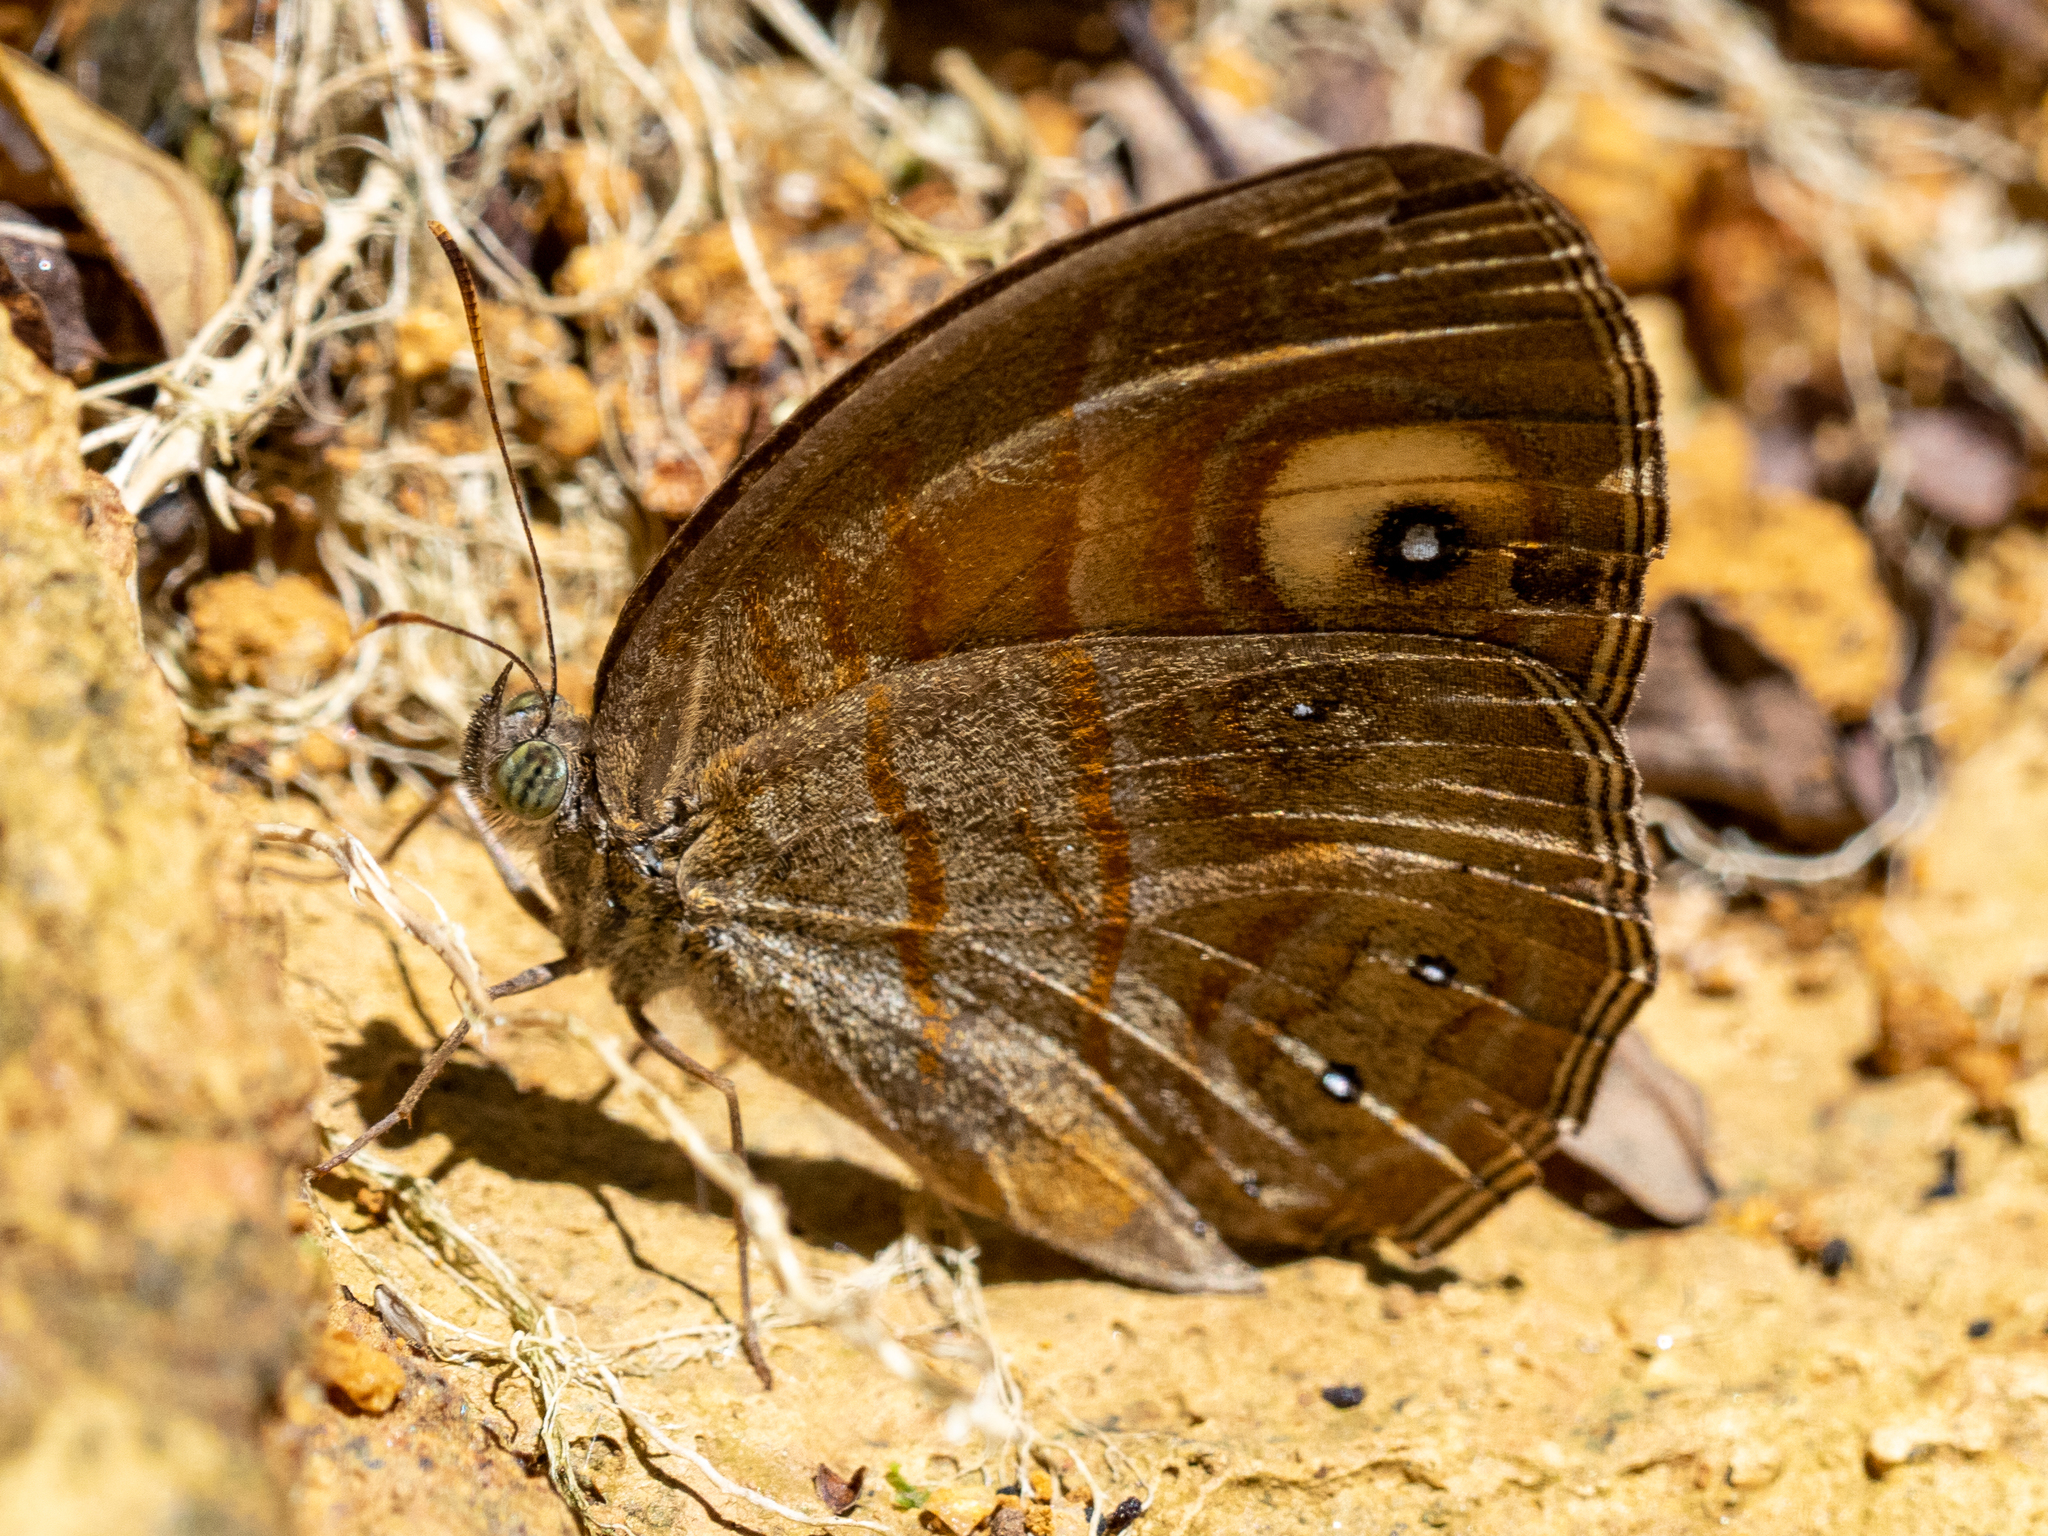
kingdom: Animalia
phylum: Arthropoda
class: Insecta
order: Lepidoptera
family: Nymphalidae
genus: Mycalesis
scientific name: Mycalesis patnia
